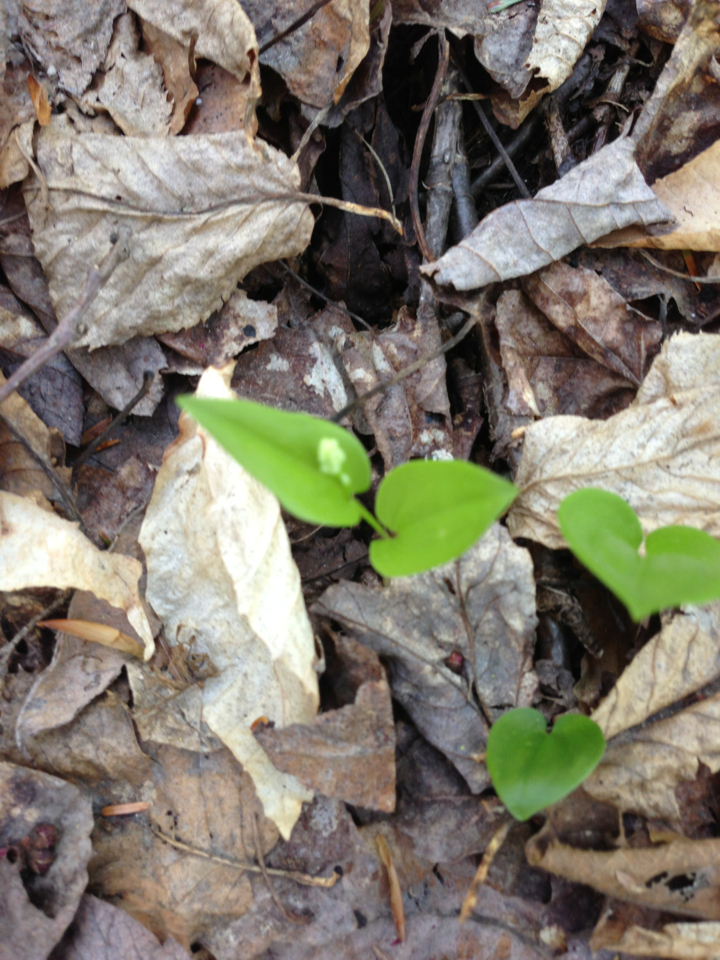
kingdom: Plantae
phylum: Tracheophyta
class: Liliopsida
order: Asparagales
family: Asparagaceae
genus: Maianthemum
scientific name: Maianthemum canadense
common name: False lily-of-the-valley
